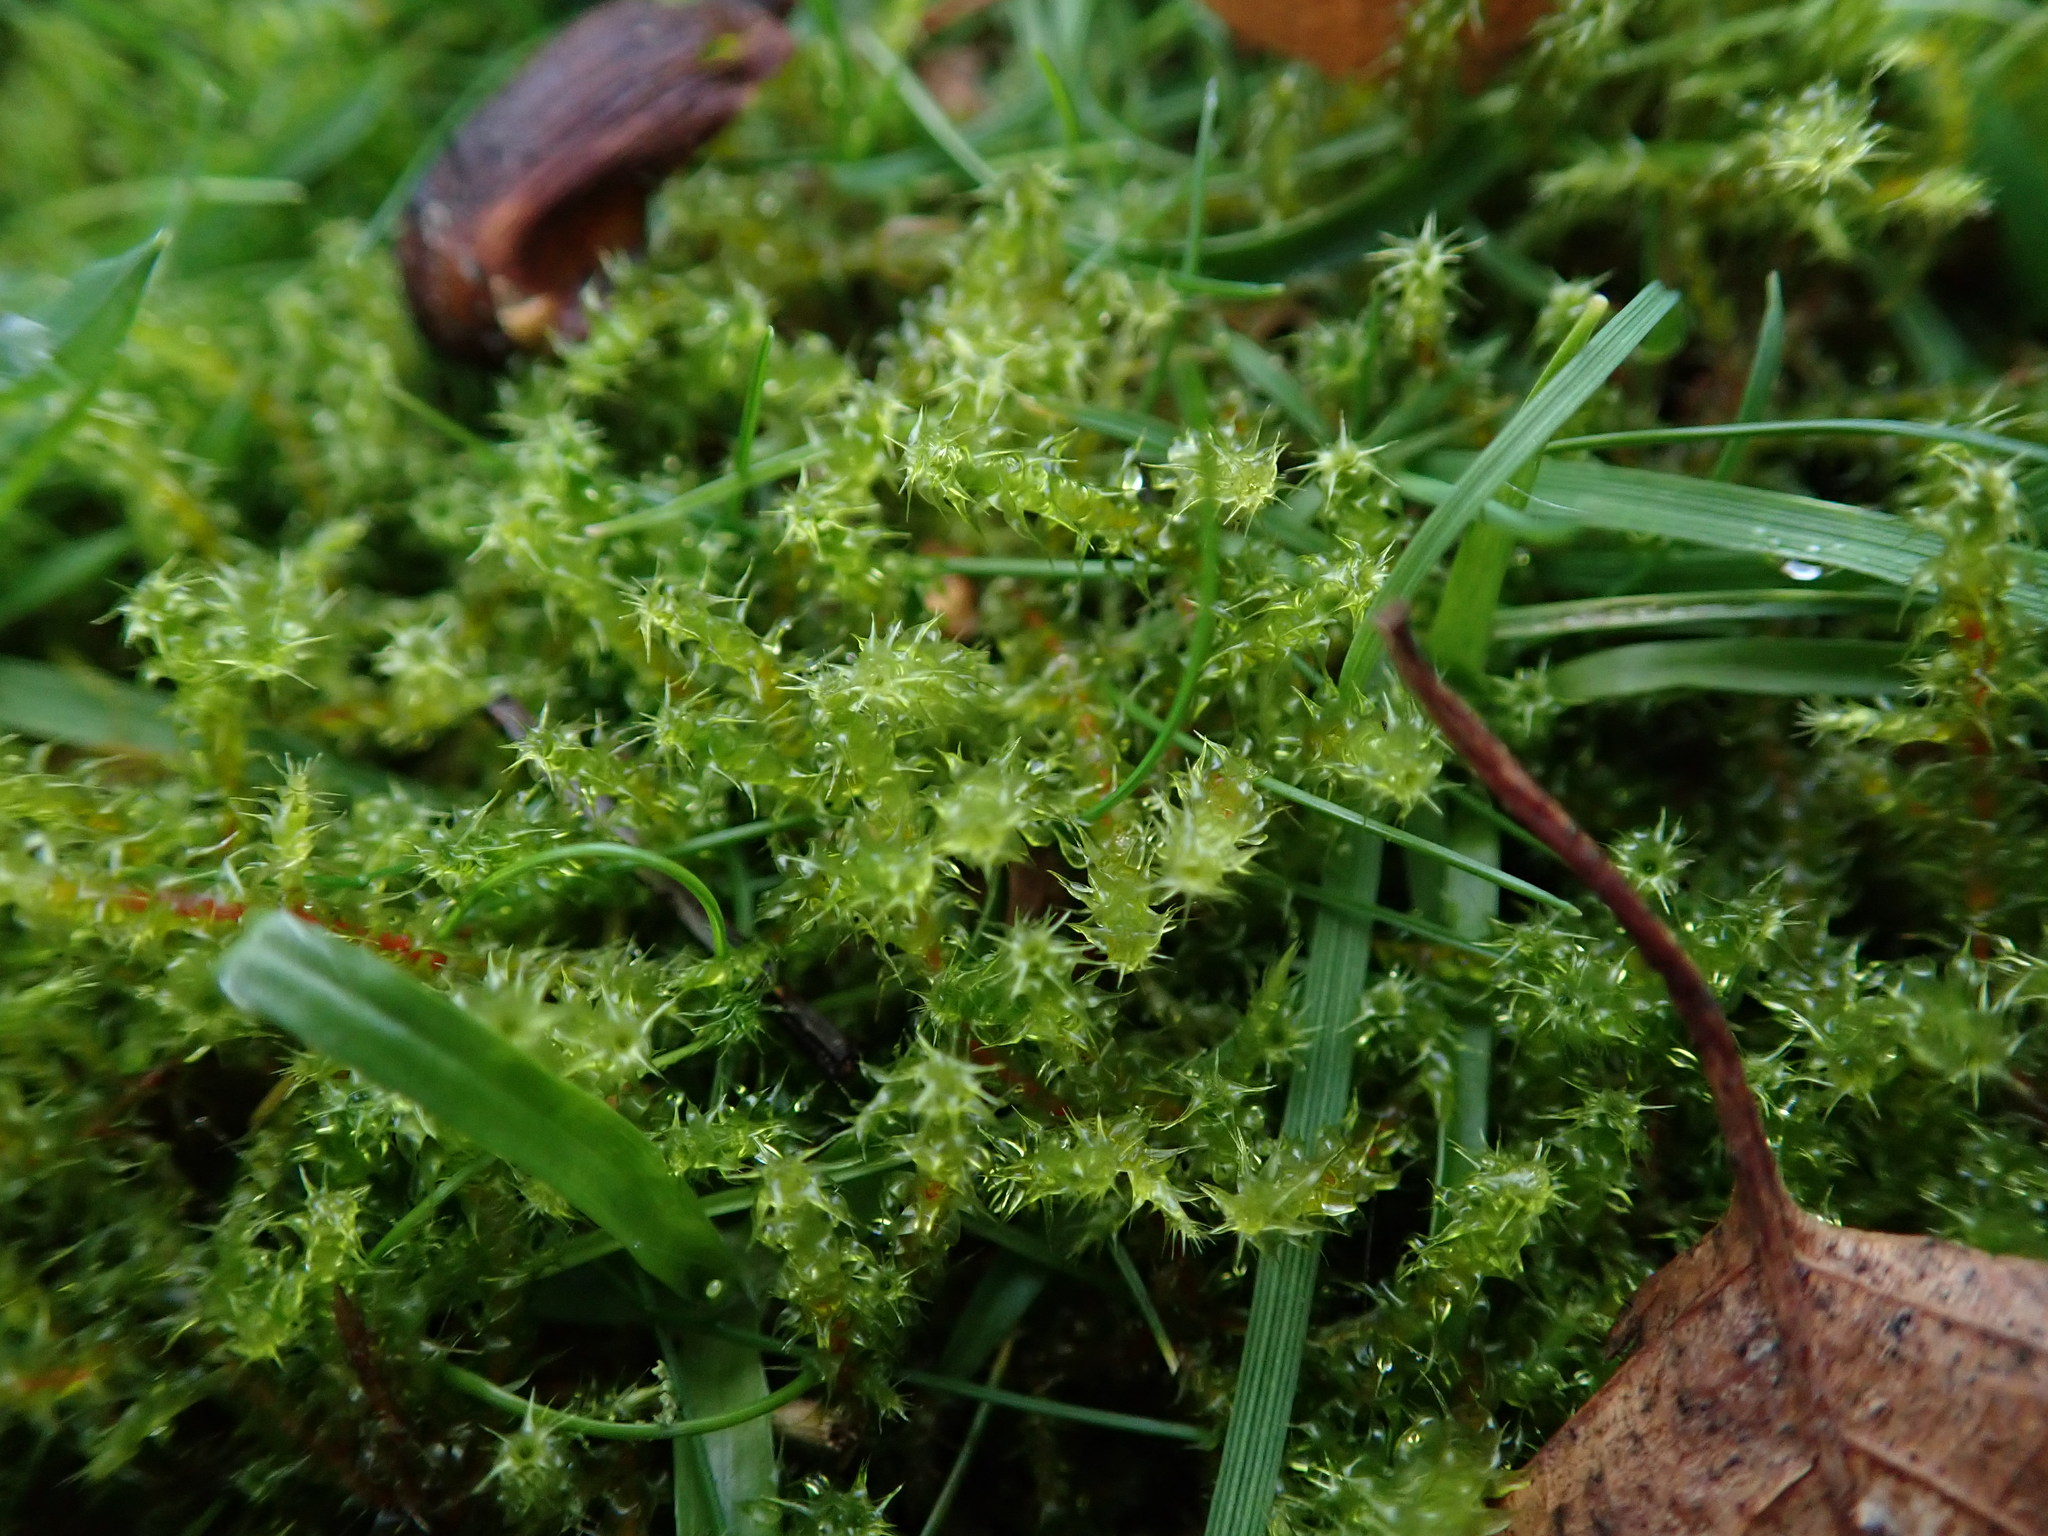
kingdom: Plantae
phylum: Bryophyta
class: Bryopsida
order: Hypnales
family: Hylocomiaceae
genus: Rhytidiadelphus
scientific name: Rhytidiadelphus squarrosus
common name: Springy turf-moss
